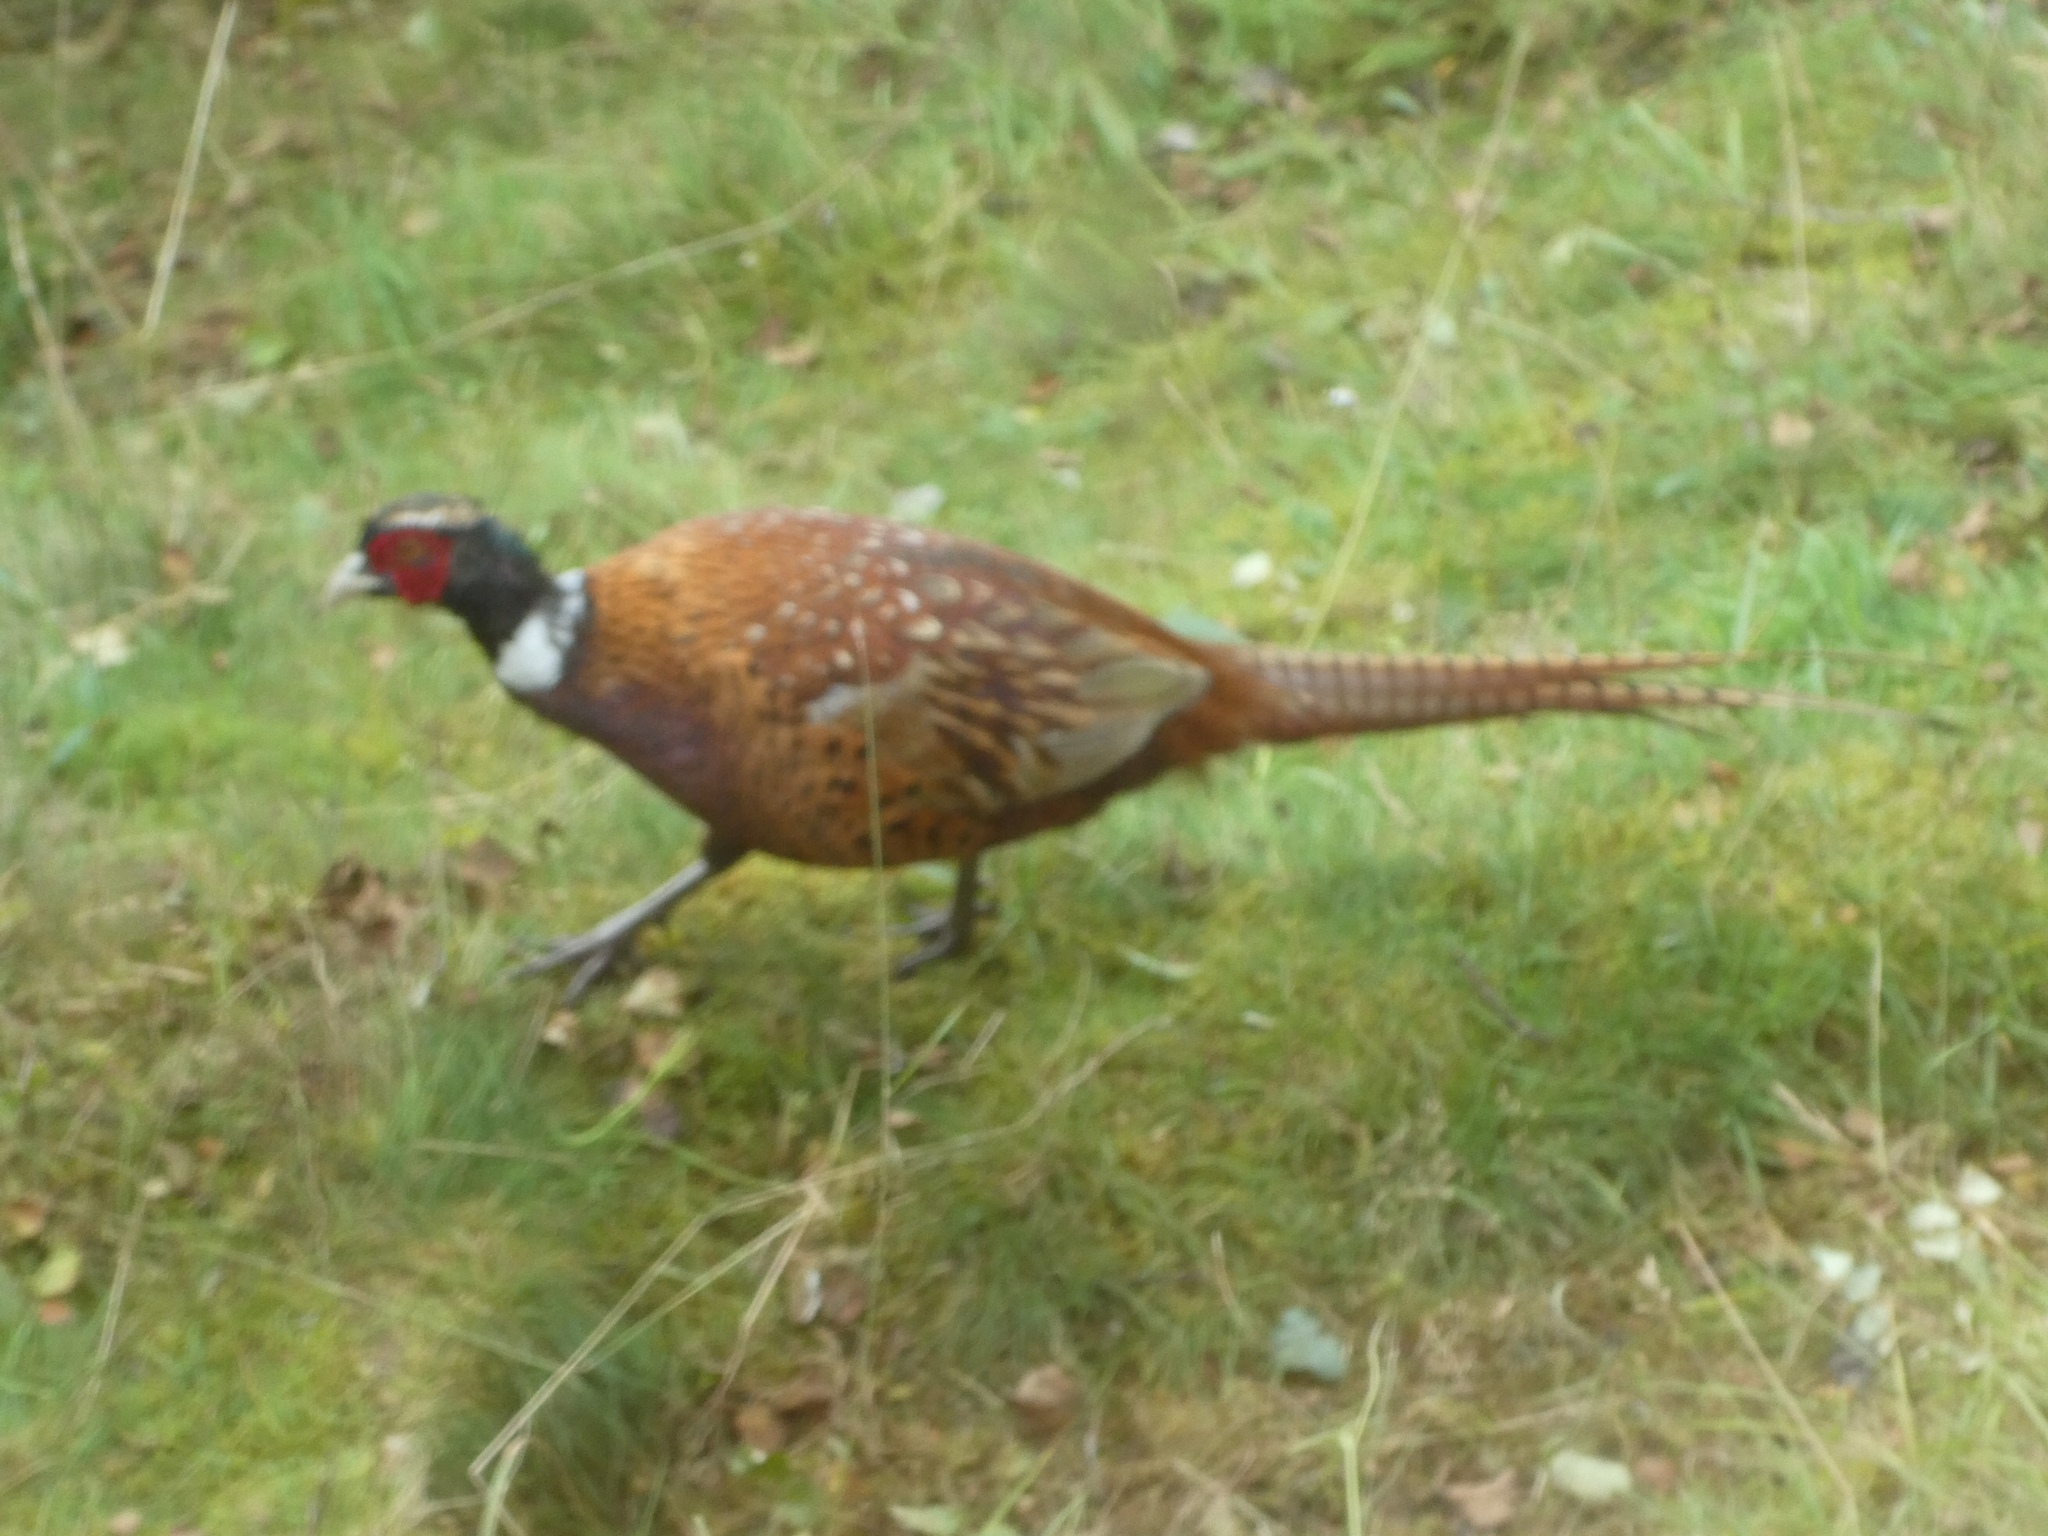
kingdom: Animalia
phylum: Chordata
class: Aves
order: Galliformes
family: Phasianidae
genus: Phasianus
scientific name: Phasianus colchicus
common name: Common pheasant
